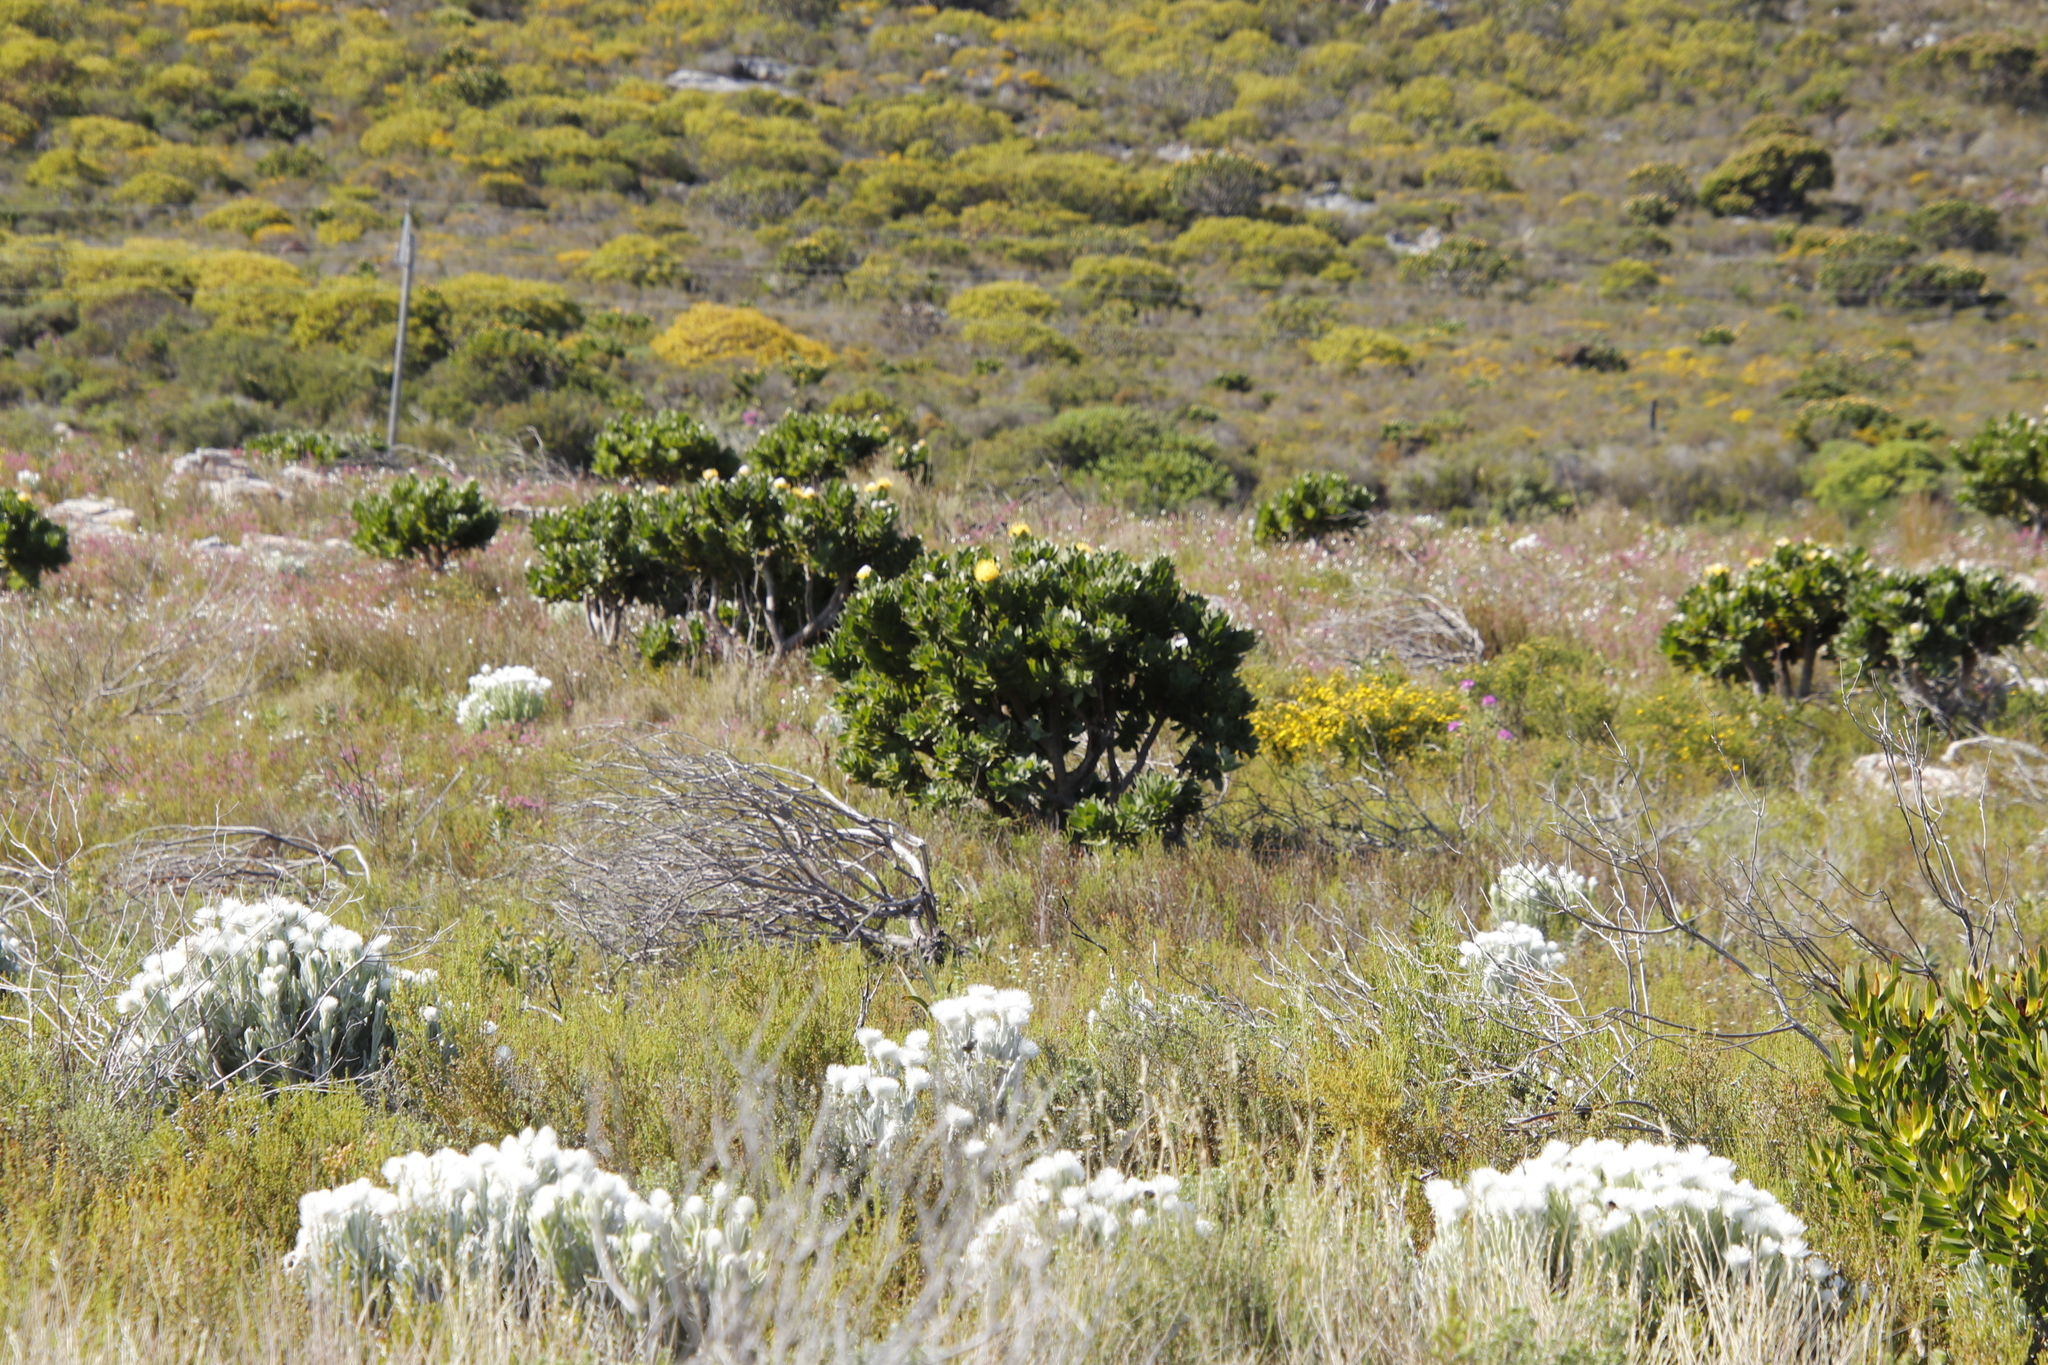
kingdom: Plantae
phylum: Tracheophyta
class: Magnoliopsida
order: Proteales
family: Proteaceae
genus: Leucospermum
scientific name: Leucospermum conocarpodendron
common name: Tree pincushion
